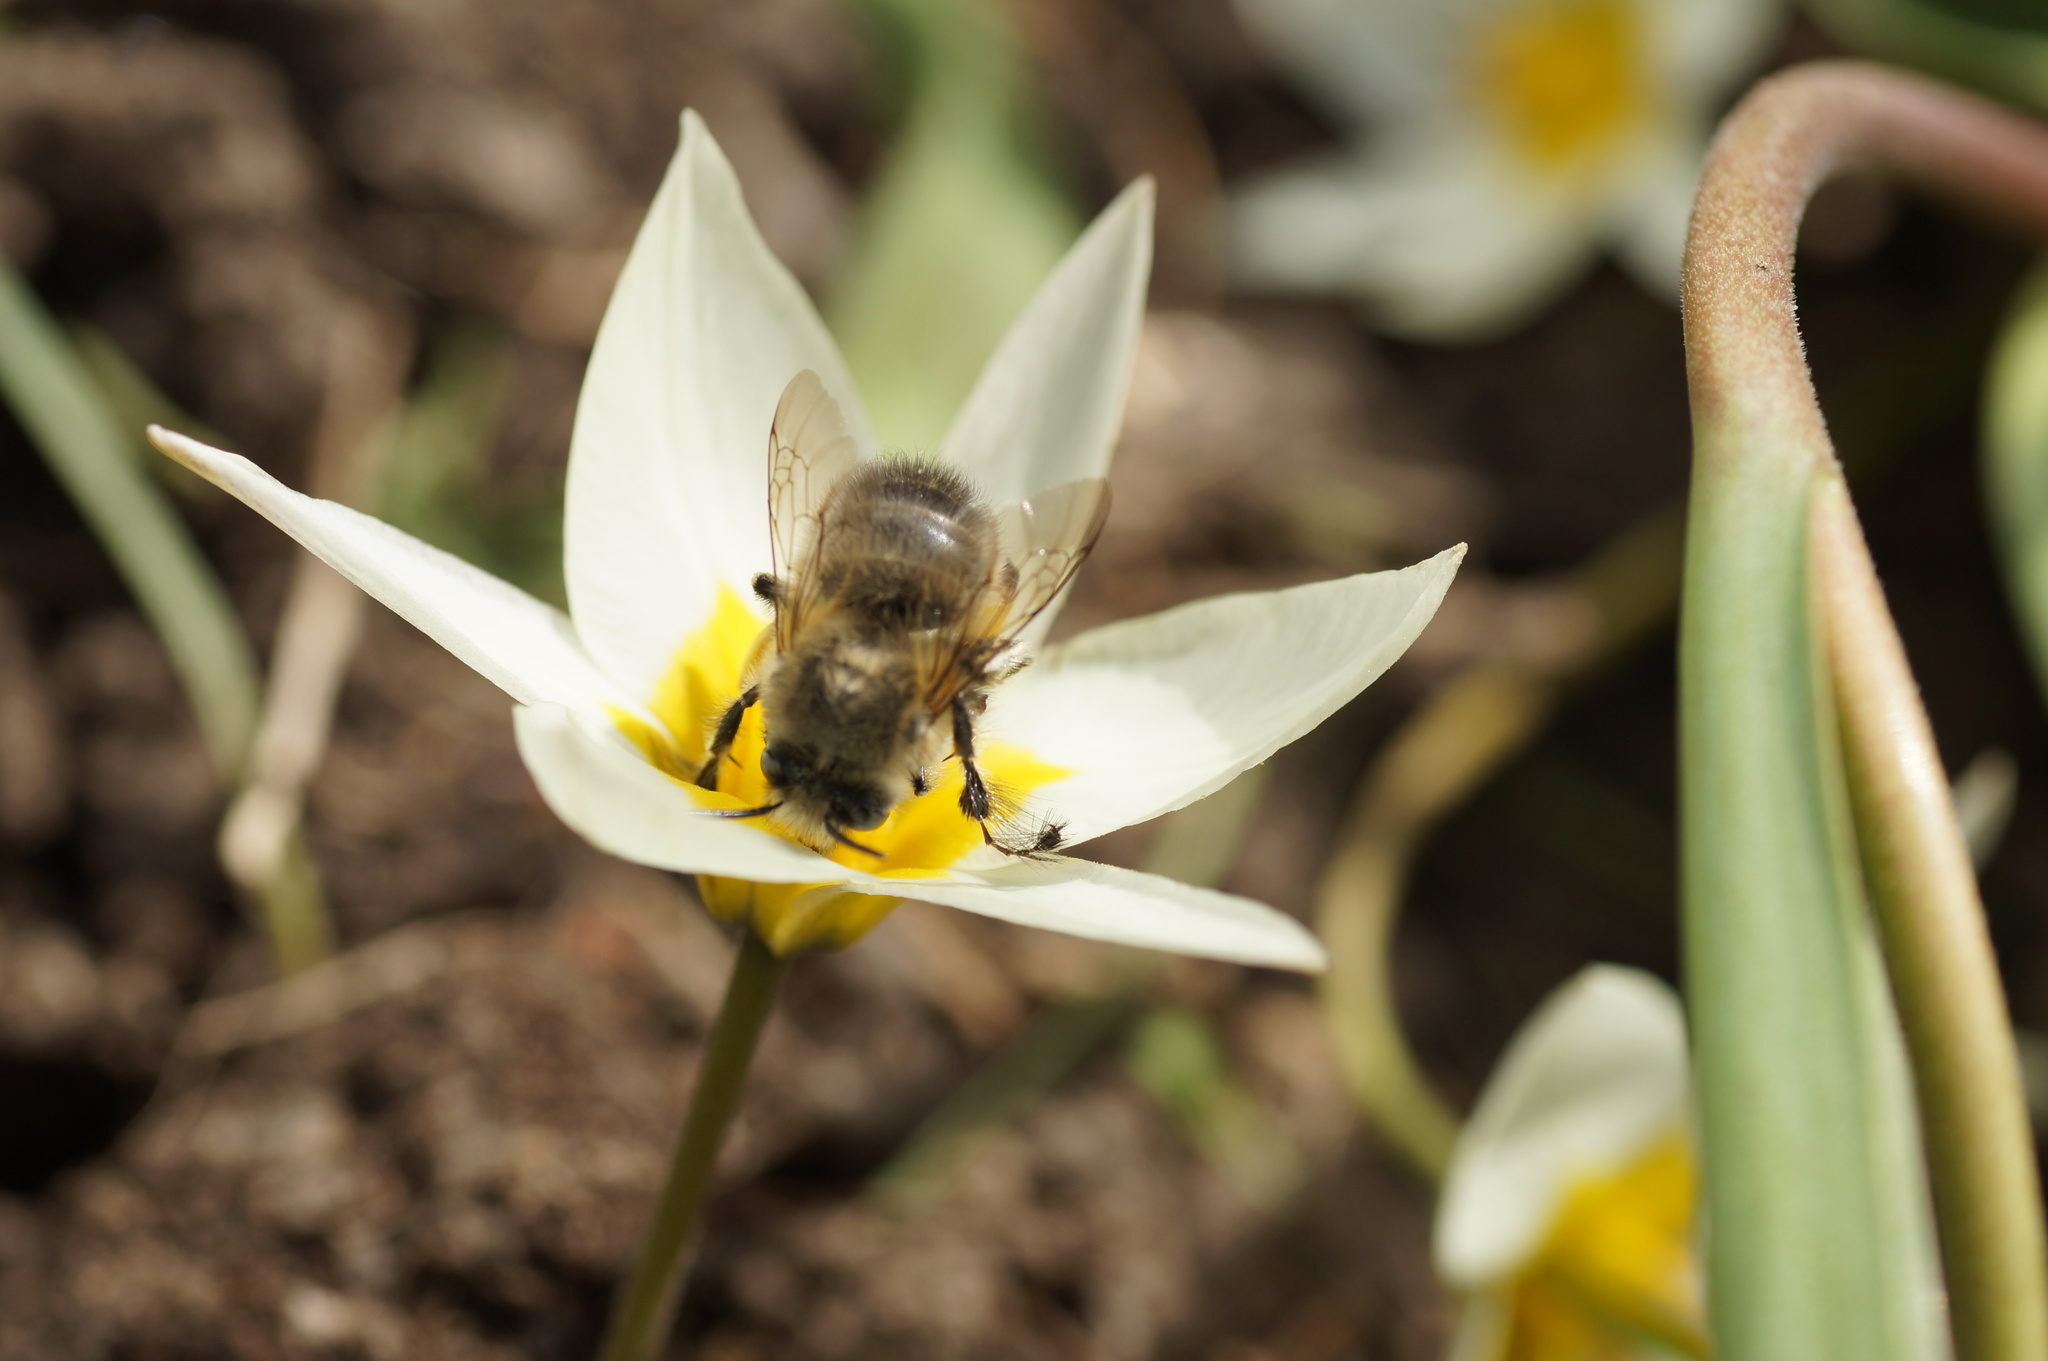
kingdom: Animalia
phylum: Arthropoda
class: Insecta
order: Hymenoptera
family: Apidae
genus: Anthophora
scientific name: Anthophora plumipes
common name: Hairy-footed flower bee
